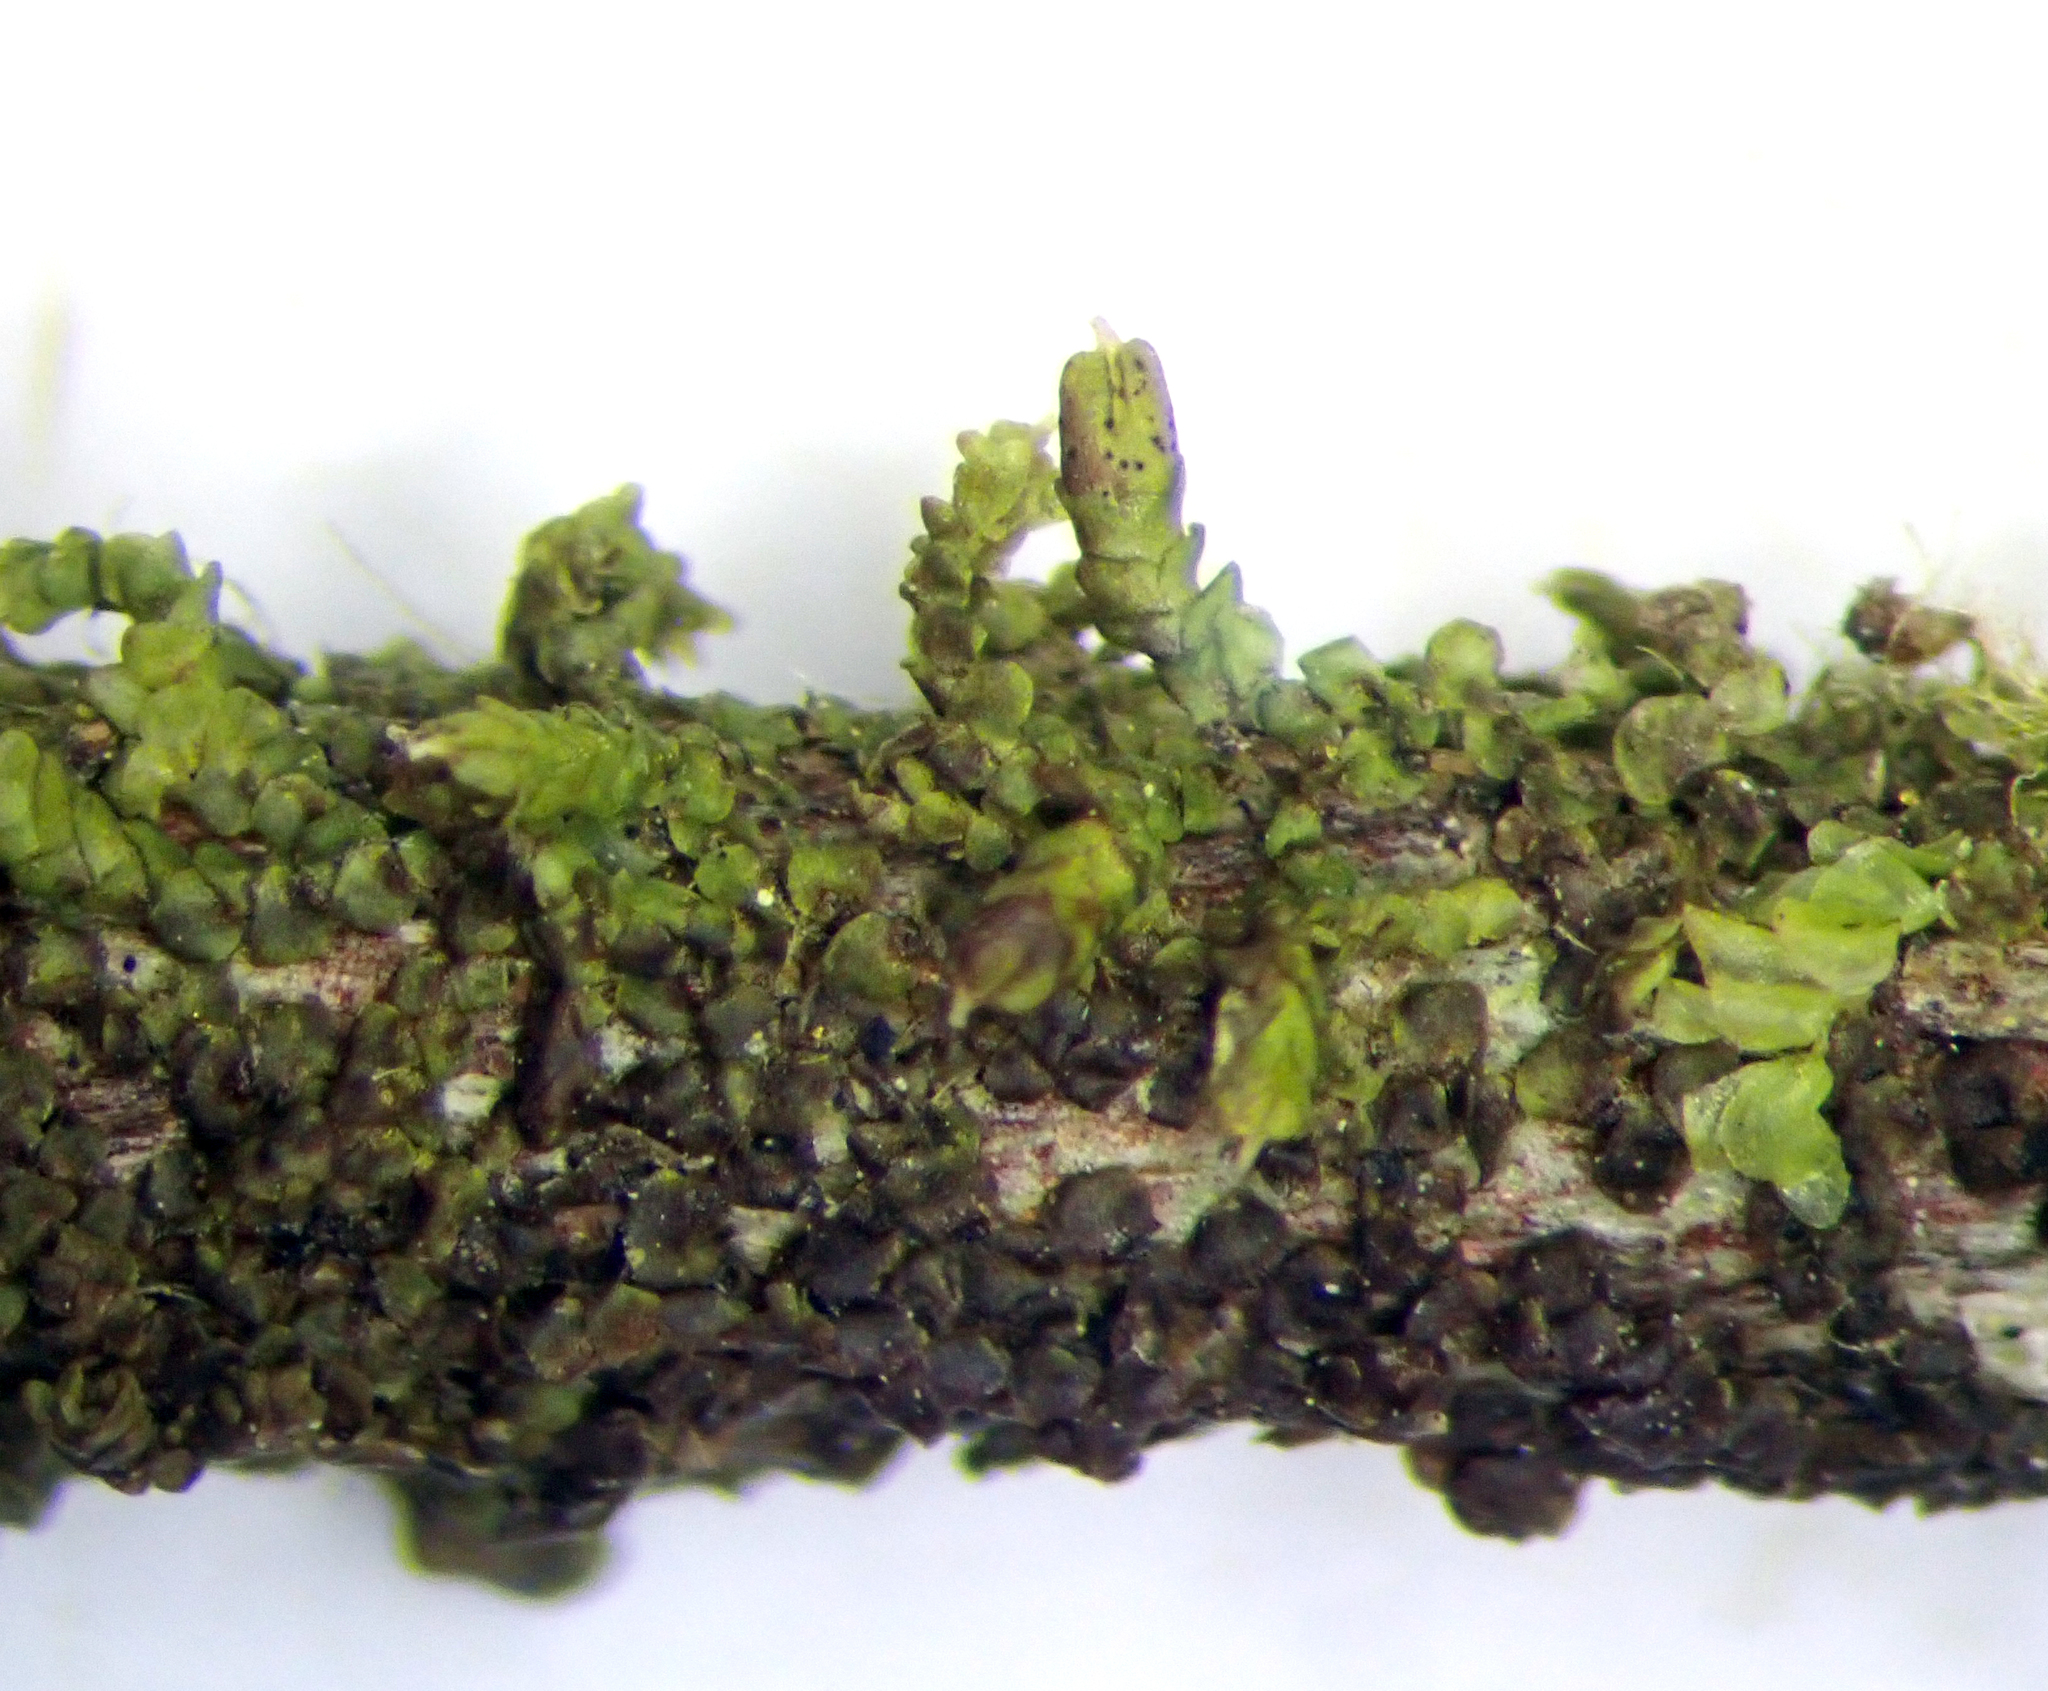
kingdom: Plantae
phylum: Marchantiophyta
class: Jungermanniopsida
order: Porellales
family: Frullaniaceae
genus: Frullania
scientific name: Frullania incumbens
